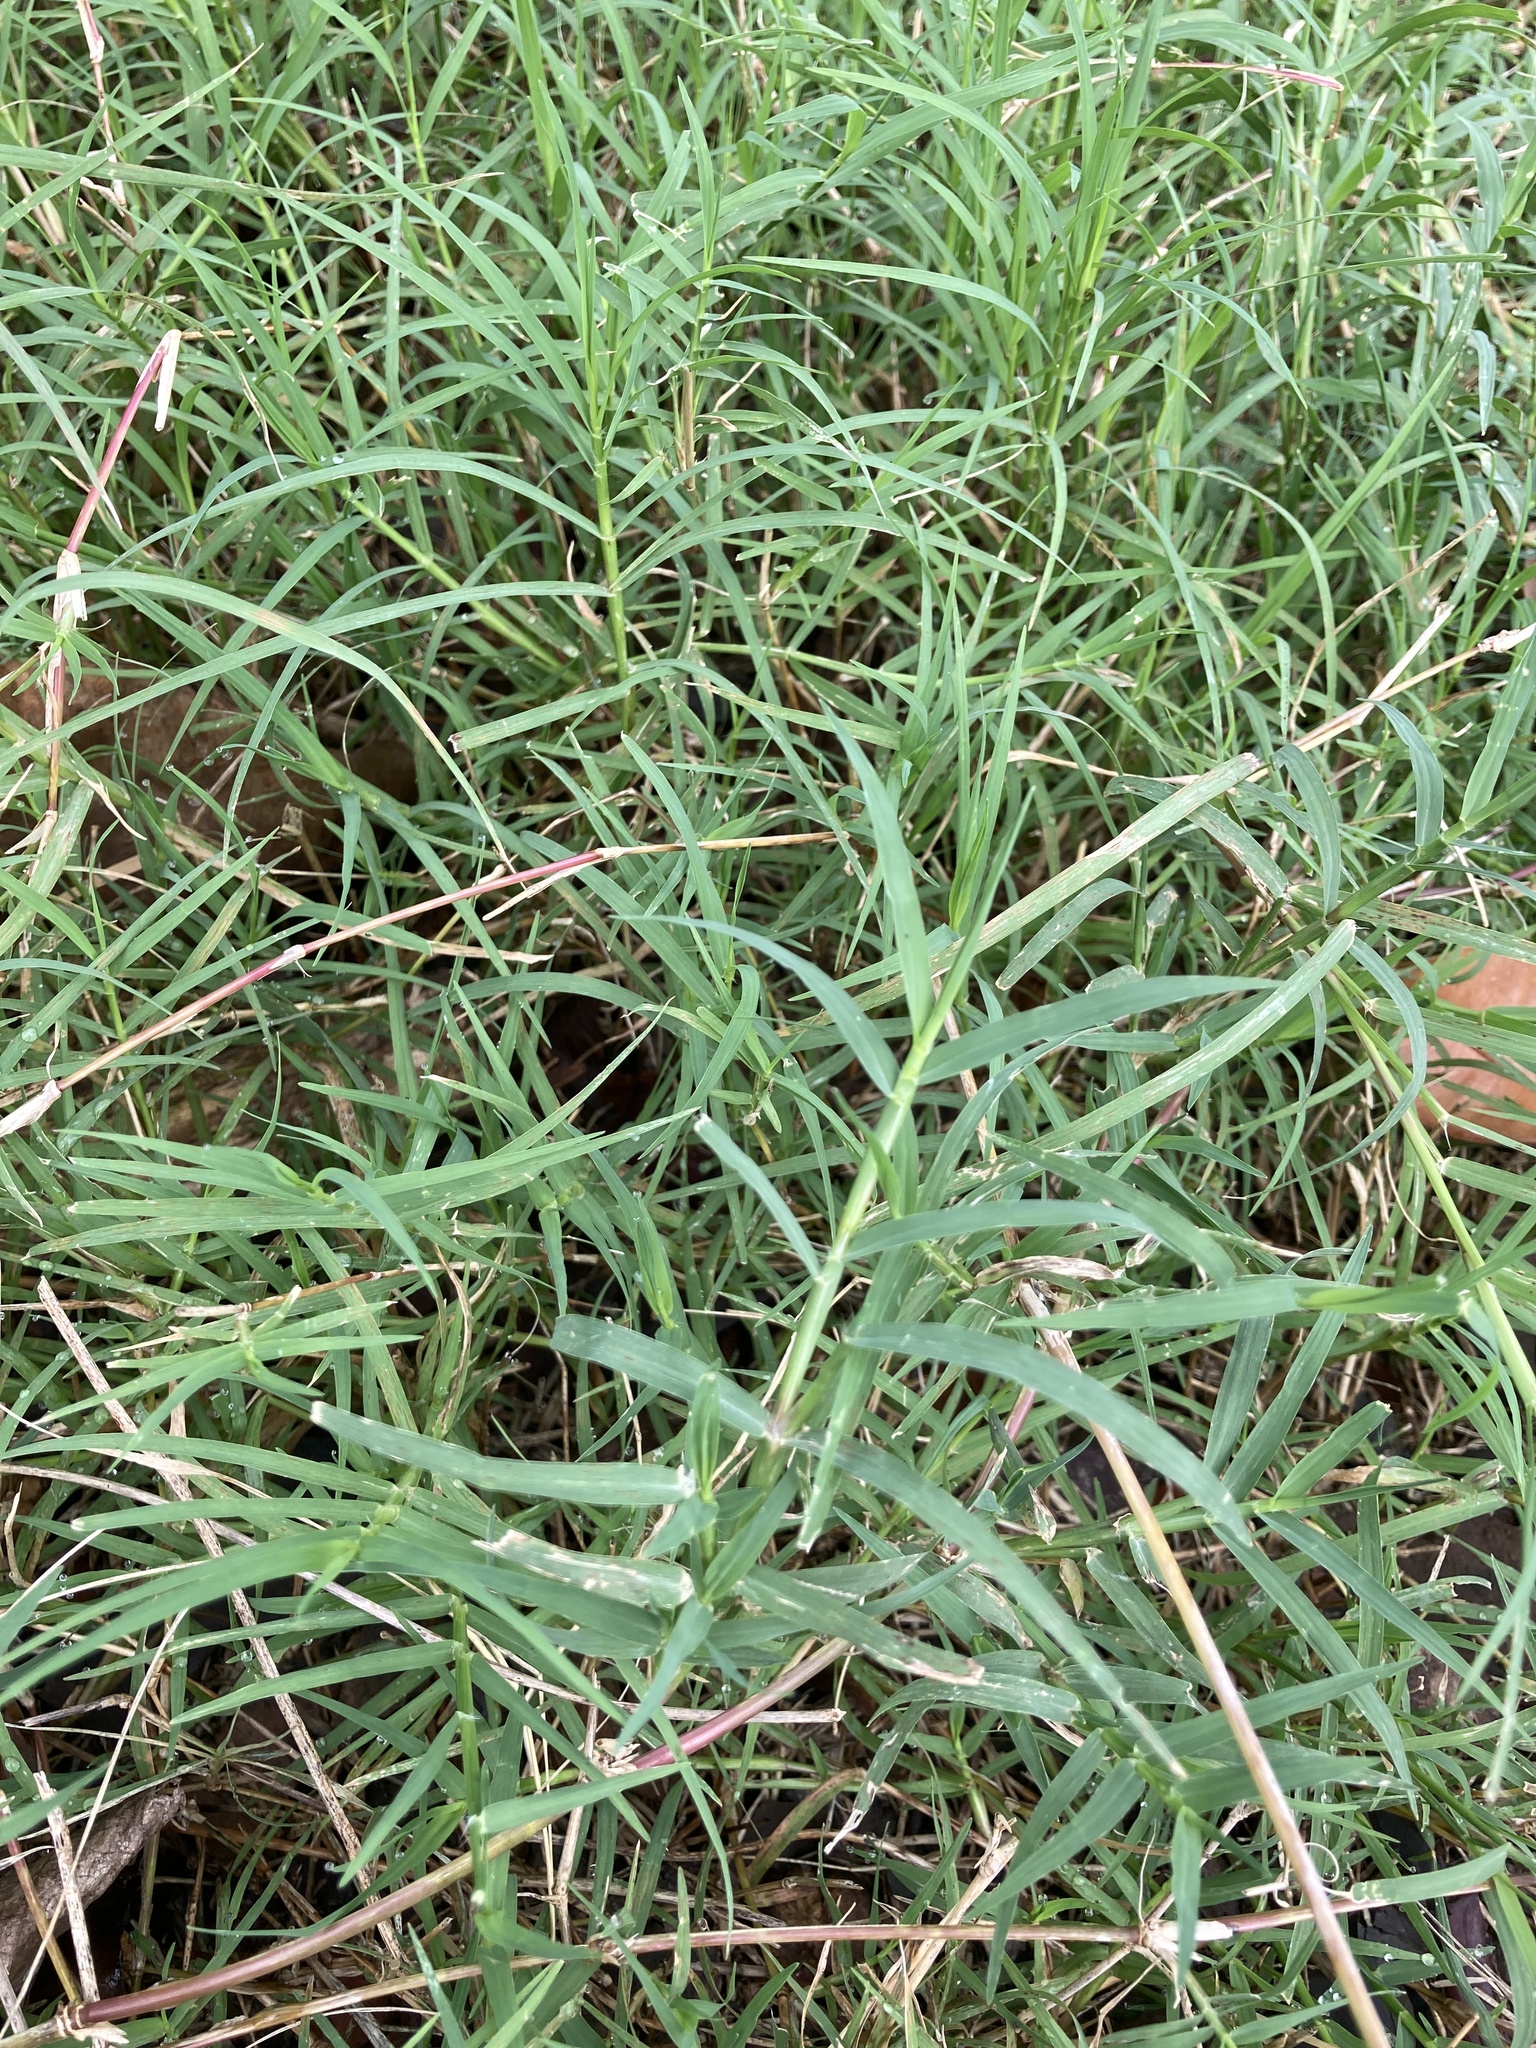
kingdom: Plantae
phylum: Tracheophyta
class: Liliopsida
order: Poales
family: Poaceae
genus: Cynodon
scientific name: Cynodon dactylon
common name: Bermuda grass
